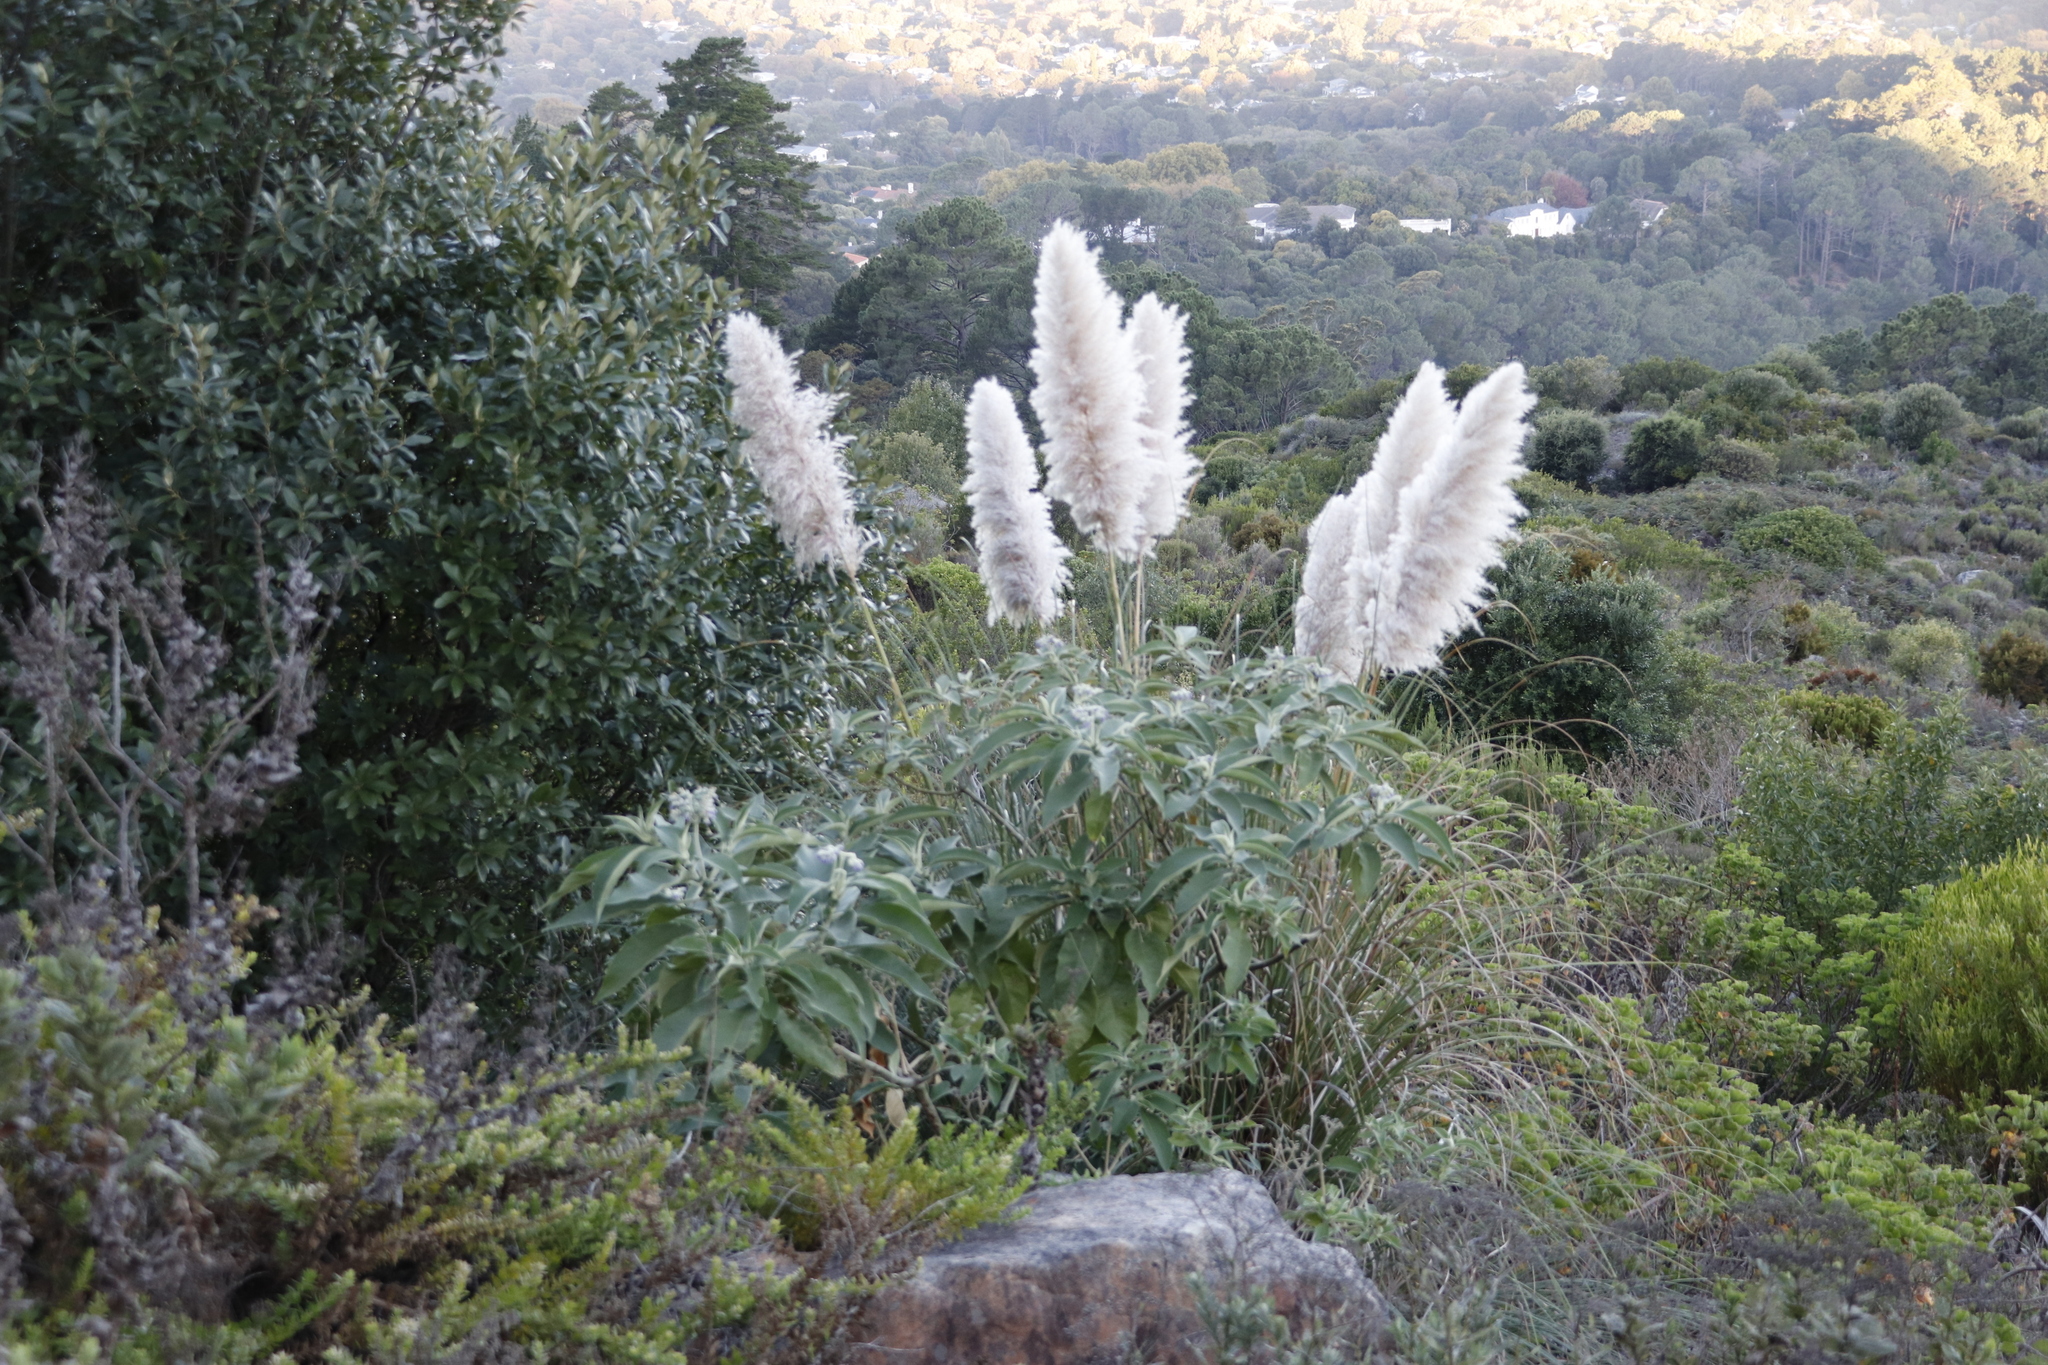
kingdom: Plantae
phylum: Tracheophyta
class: Liliopsida
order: Poales
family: Poaceae
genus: Cortaderia
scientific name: Cortaderia selloana
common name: Uruguayan pampas grass
